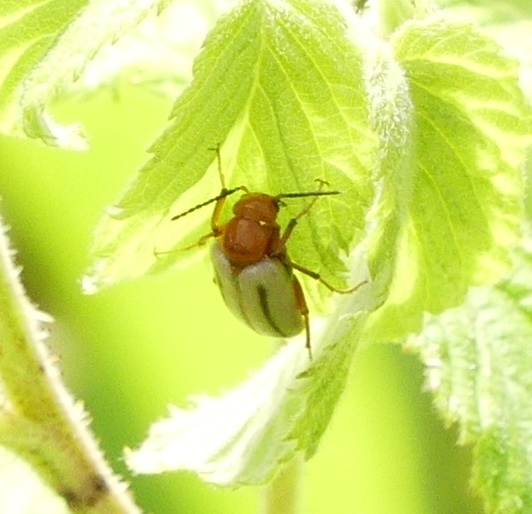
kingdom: Animalia
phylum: Arthropoda
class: Insecta
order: Coleoptera
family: Meloidae
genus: Zonitis
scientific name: Zonitis bilineata
